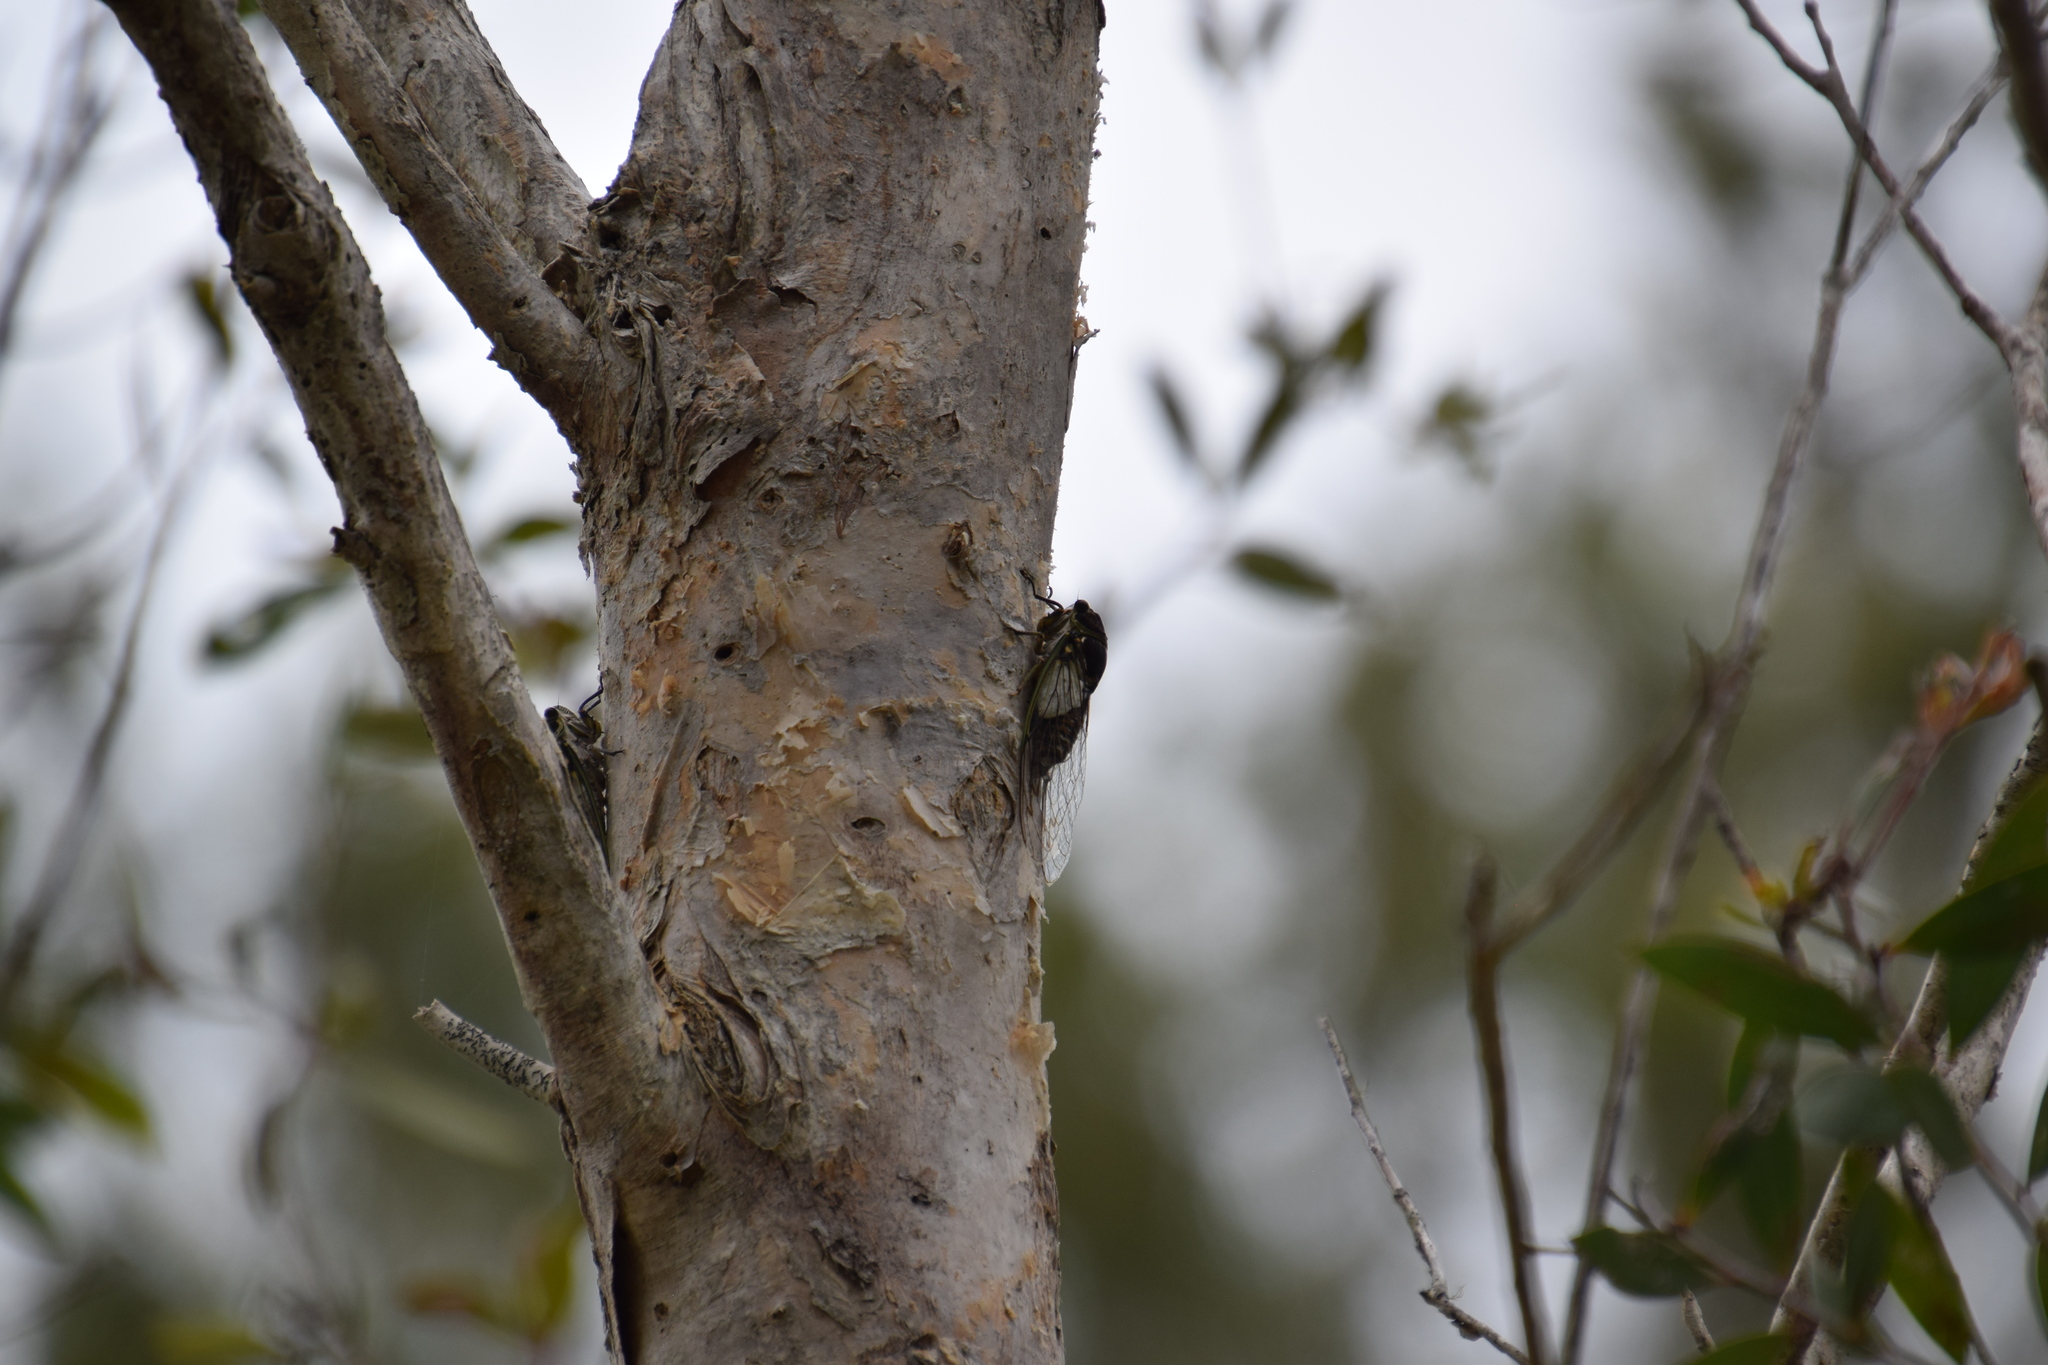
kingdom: Animalia
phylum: Arthropoda
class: Insecta
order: Hemiptera
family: Cicadidae
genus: Arunta
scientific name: Arunta perulata
